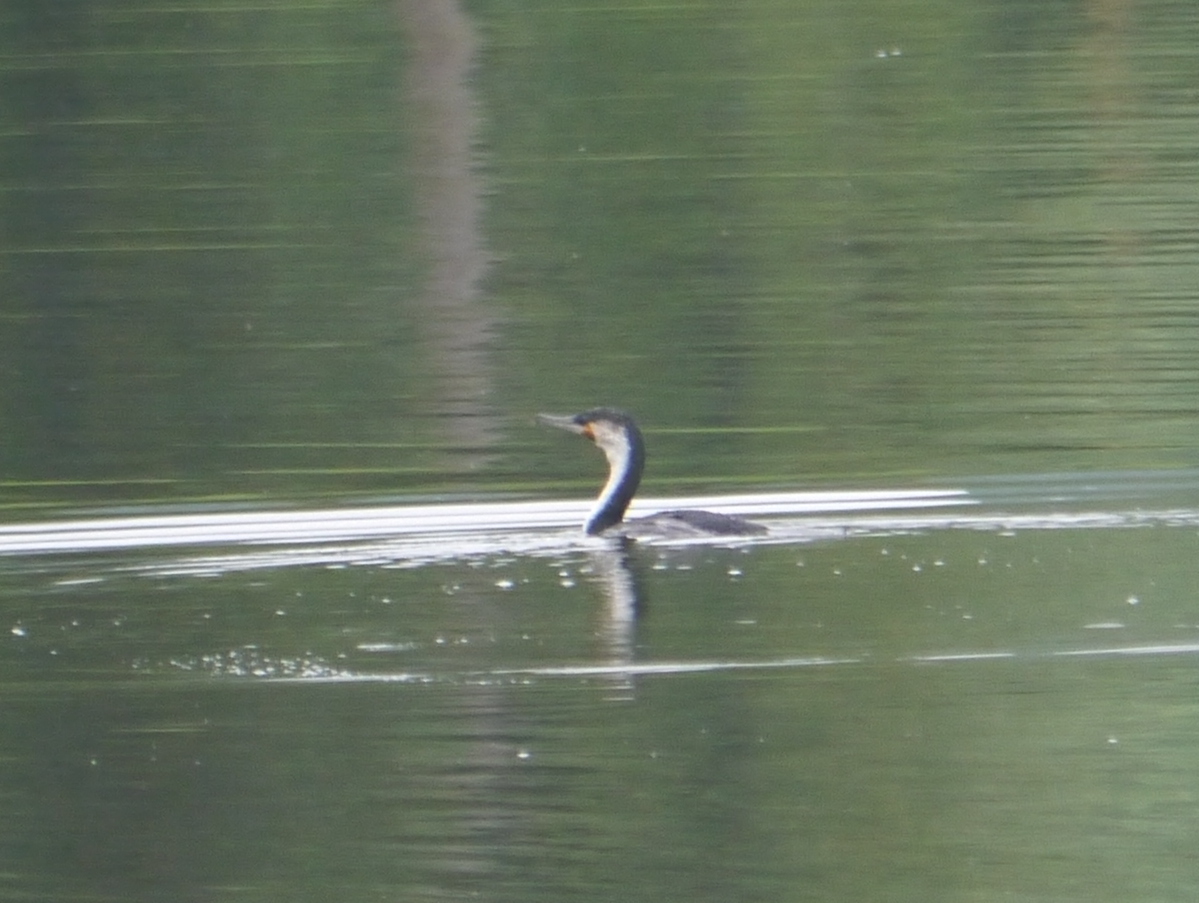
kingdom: Animalia
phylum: Chordata
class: Aves
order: Suliformes
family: Phalacrocoracidae
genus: Phalacrocorax
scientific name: Phalacrocorax carbo
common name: Great cormorant
